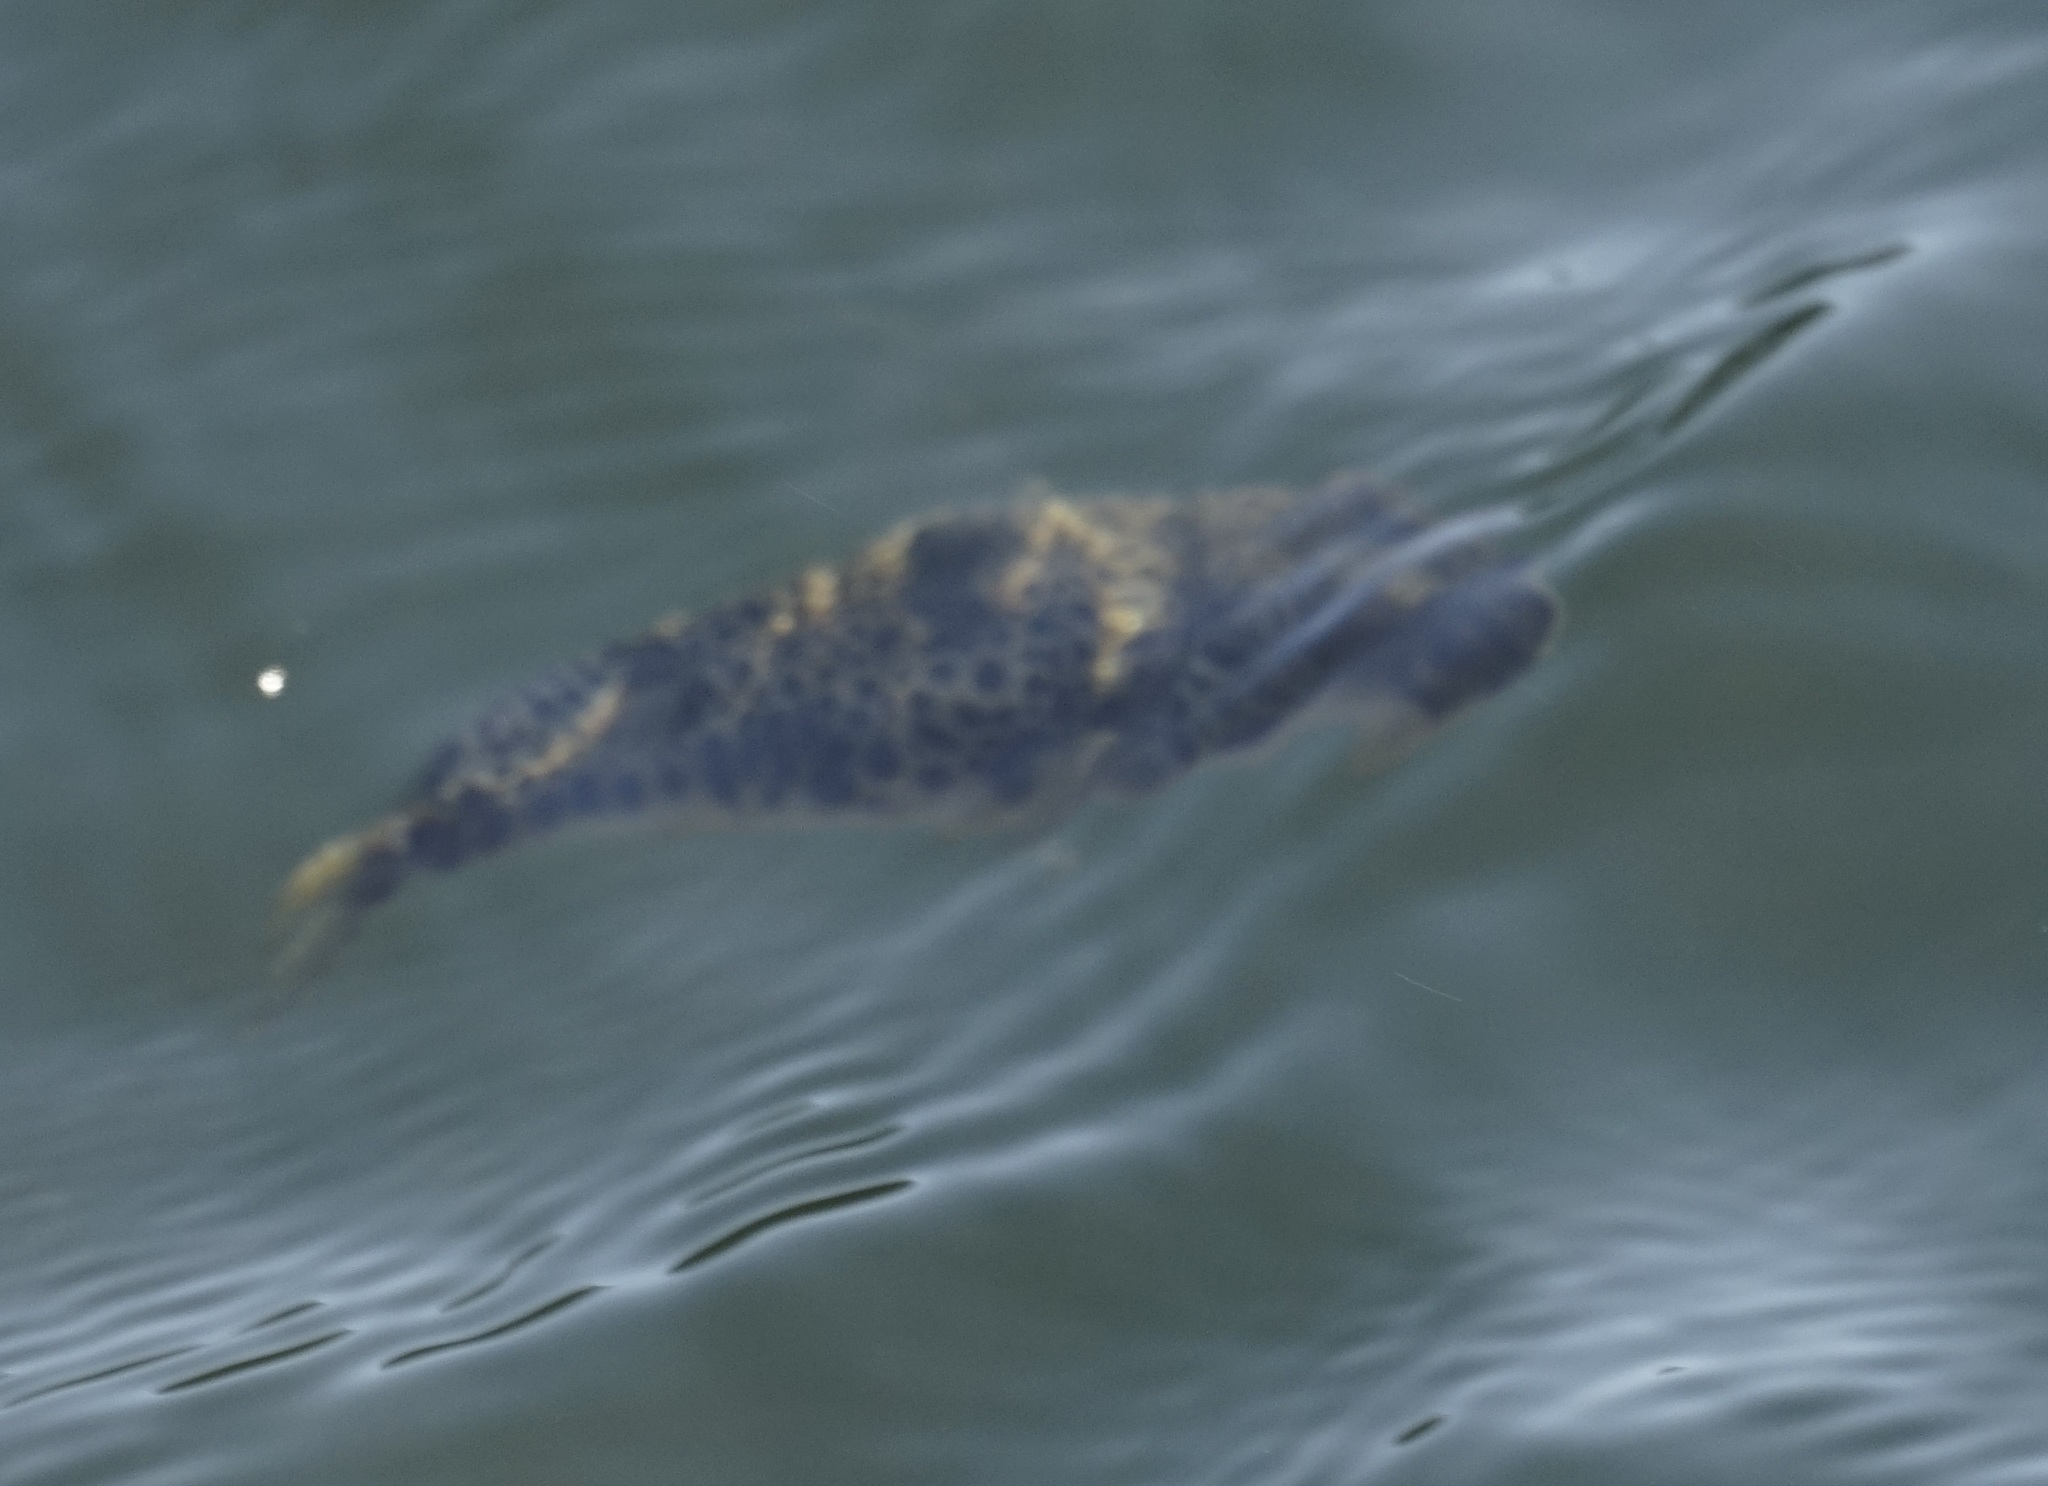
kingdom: Animalia
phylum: Chordata
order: Tetraodontiformes
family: Tetraodontidae
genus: Tetractenos
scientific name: Tetractenos hamiltoni
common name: Common toadfish
